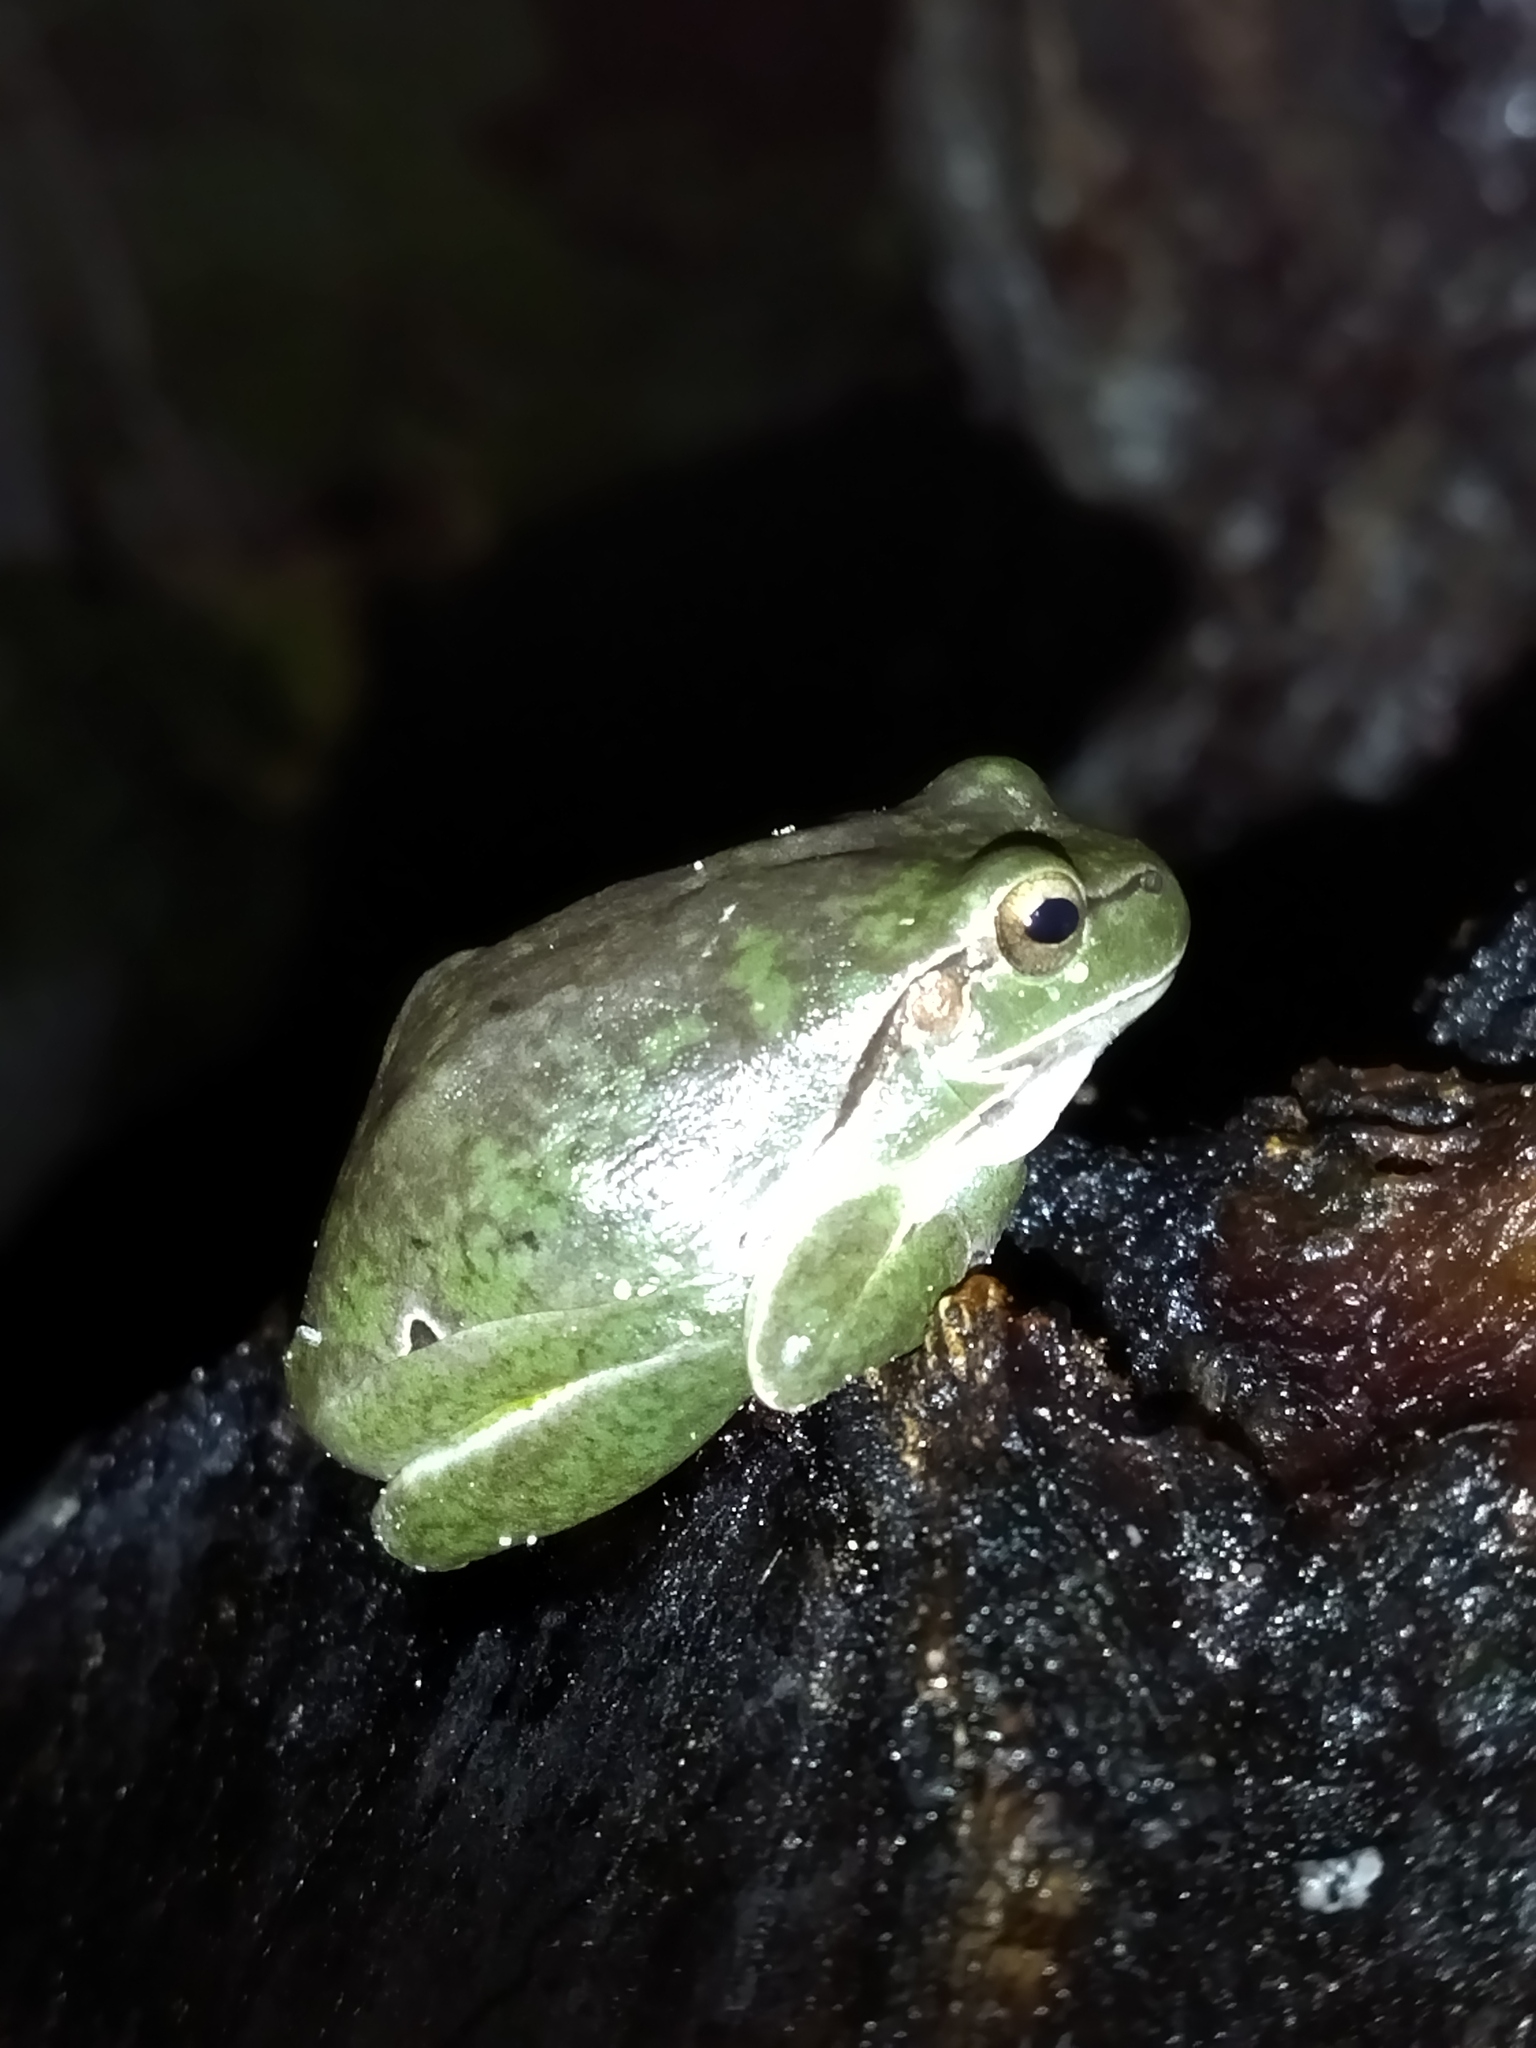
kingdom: Animalia
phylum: Chordata
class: Amphibia
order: Anura
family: Hylidae
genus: Hyla
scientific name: Hyla orientalis
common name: Caucasian treefrog
